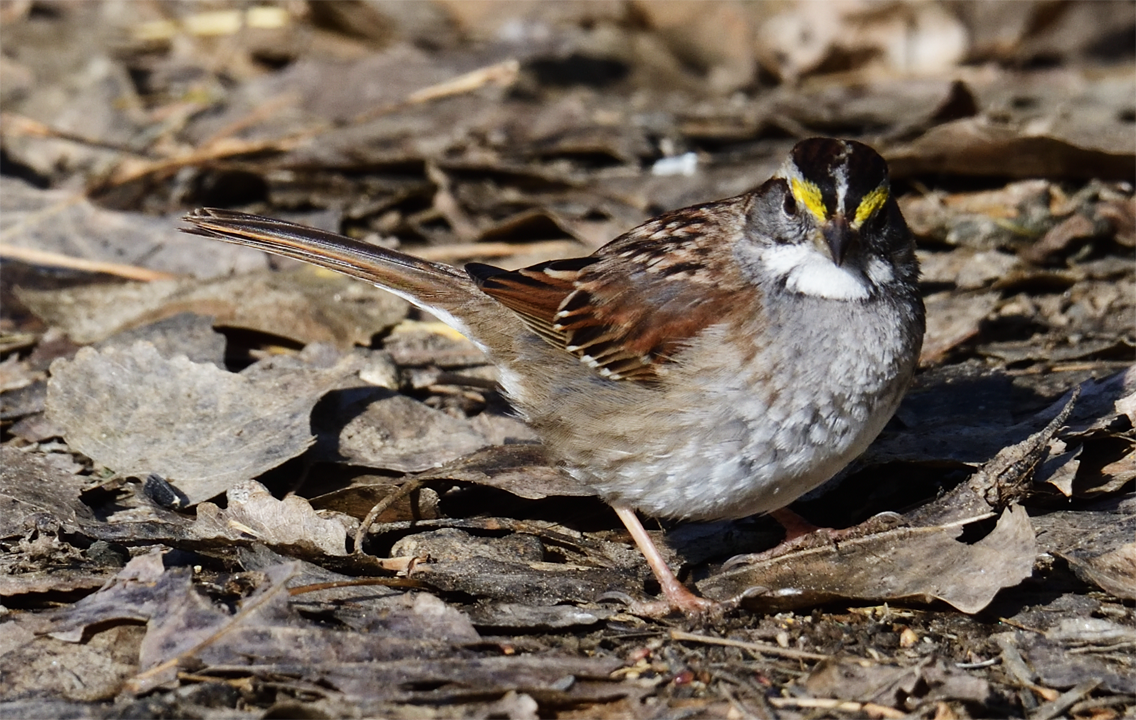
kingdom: Animalia
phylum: Chordata
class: Aves
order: Passeriformes
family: Passerellidae
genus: Zonotrichia
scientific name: Zonotrichia albicollis
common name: White-throated sparrow
